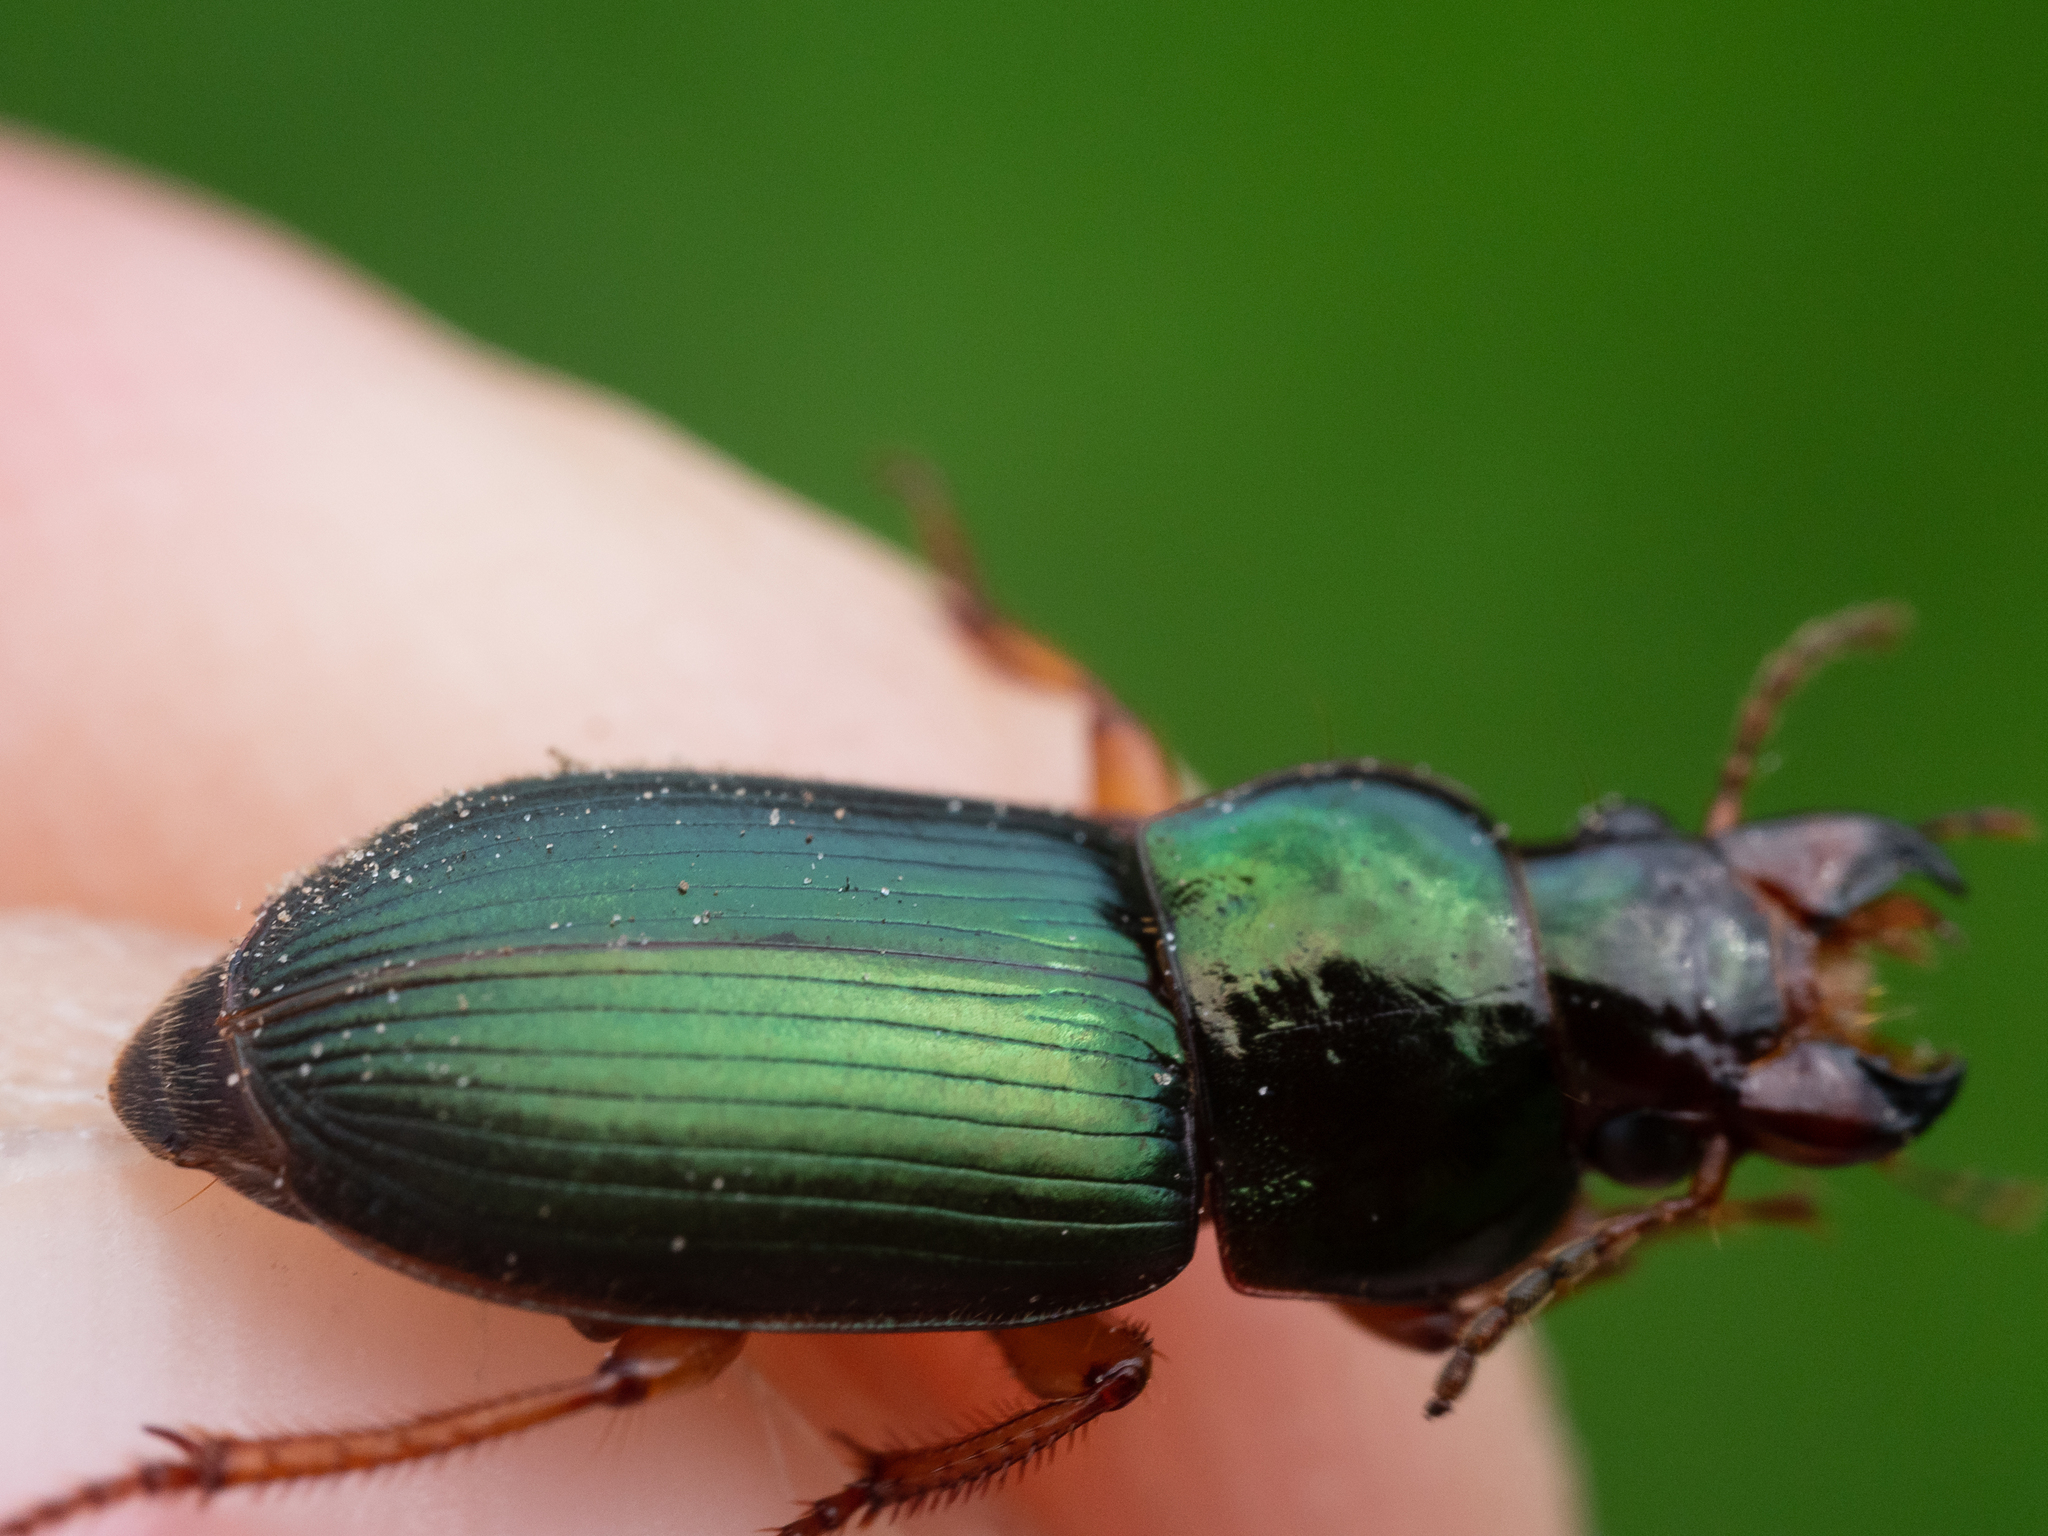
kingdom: Animalia
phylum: Arthropoda
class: Insecta
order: Coleoptera
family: Carabidae
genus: Harpalus
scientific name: Harpalus affinis
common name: Polychrome harp ground beetle
